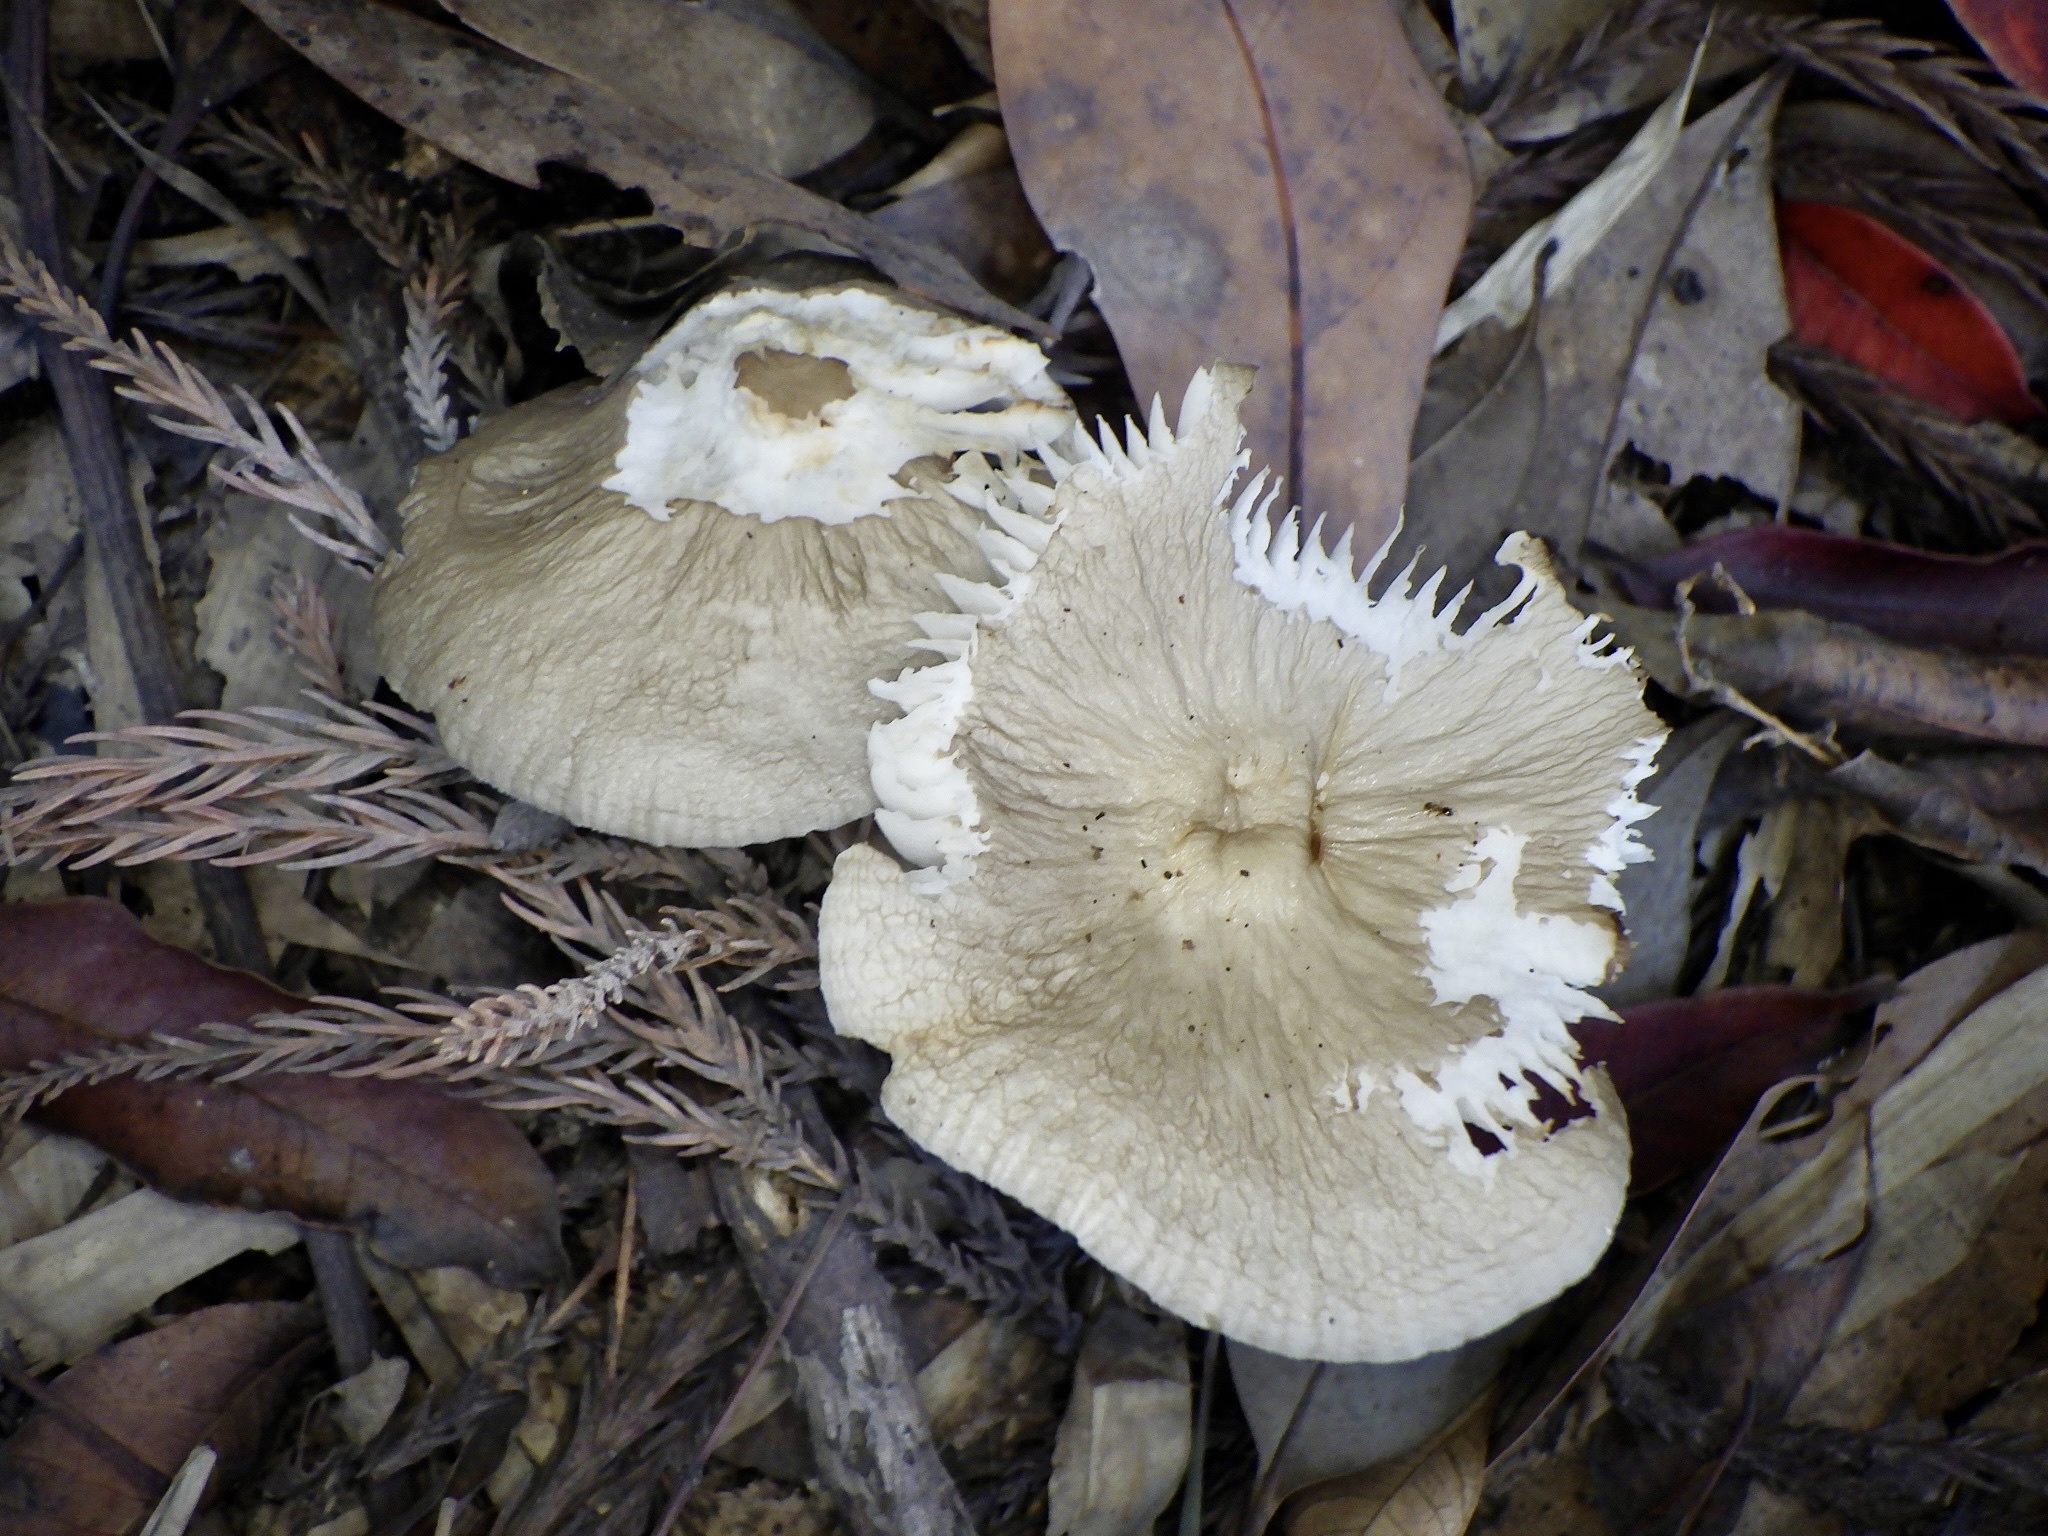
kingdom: Fungi
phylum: Basidiomycota
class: Agaricomycetes
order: Agaricales
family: Tricholomataceae
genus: Megacollybia
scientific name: Megacollybia clitocyboidea
